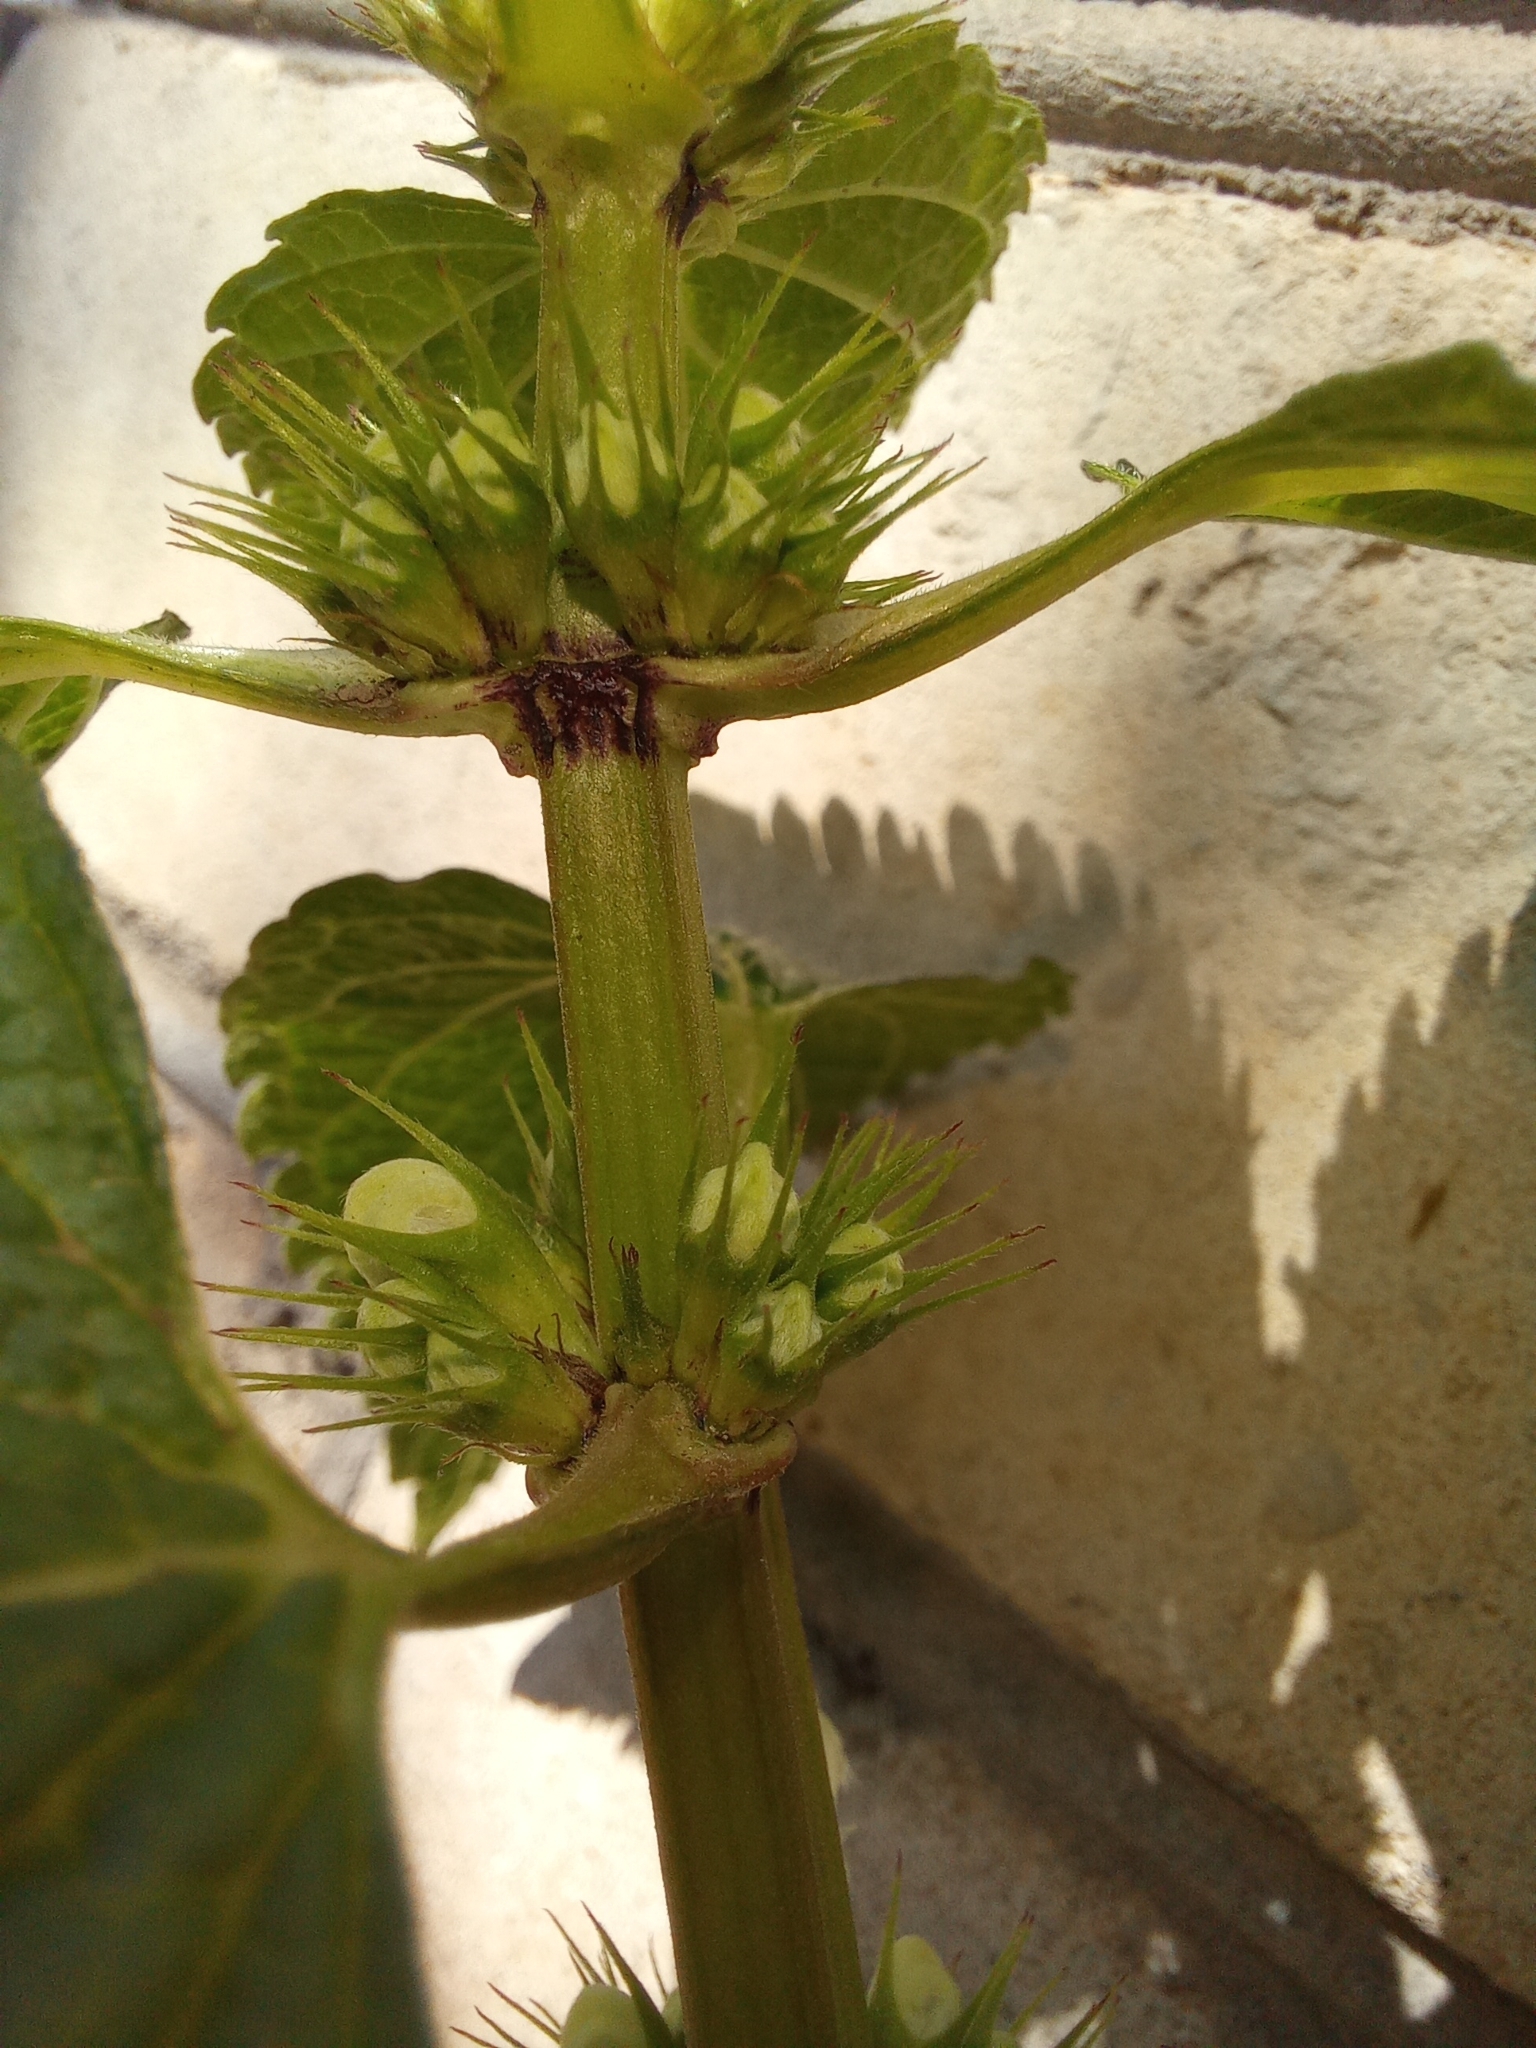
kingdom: Plantae
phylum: Tracheophyta
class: Magnoliopsida
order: Lamiales
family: Lamiaceae
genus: Lamium
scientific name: Lamium album
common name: White dead-nettle
